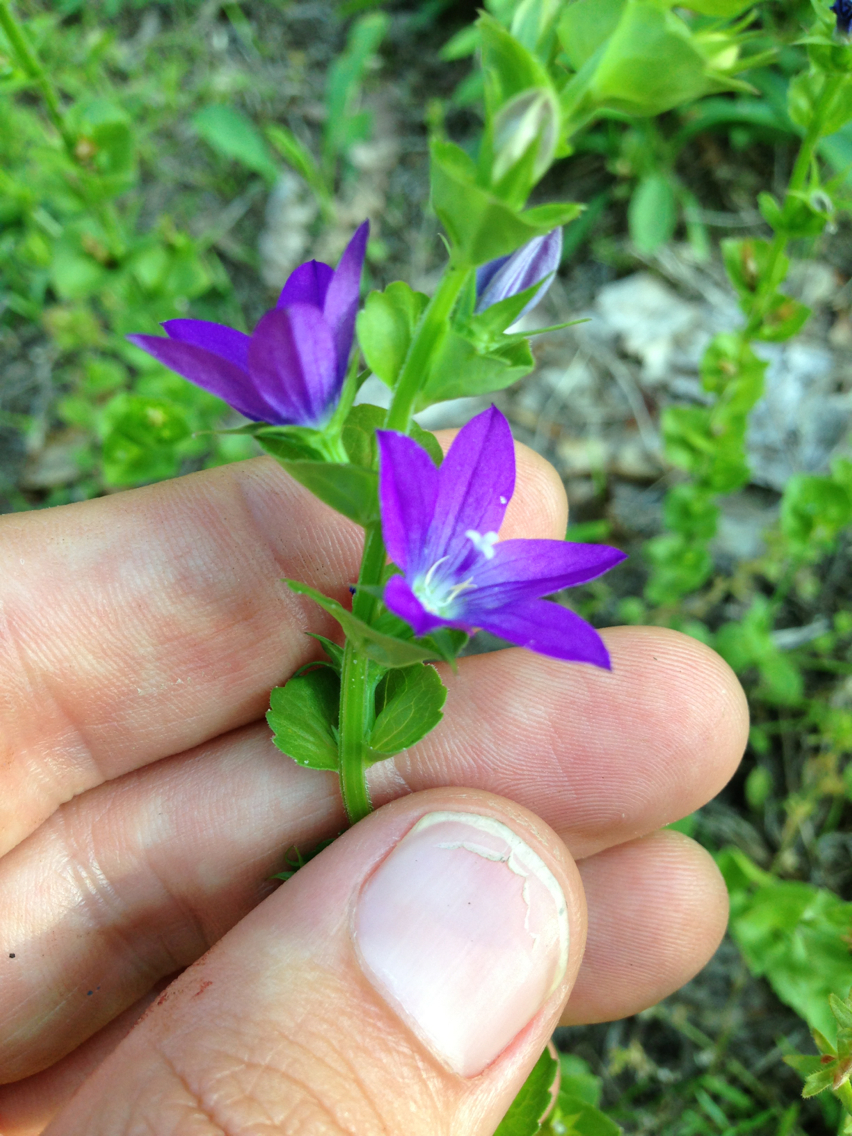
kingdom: Plantae
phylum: Tracheophyta
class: Magnoliopsida
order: Asterales
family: Campanulaceae
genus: Triodanis
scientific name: Triodanis perfoliata
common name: Clasping venus' looking-glass
